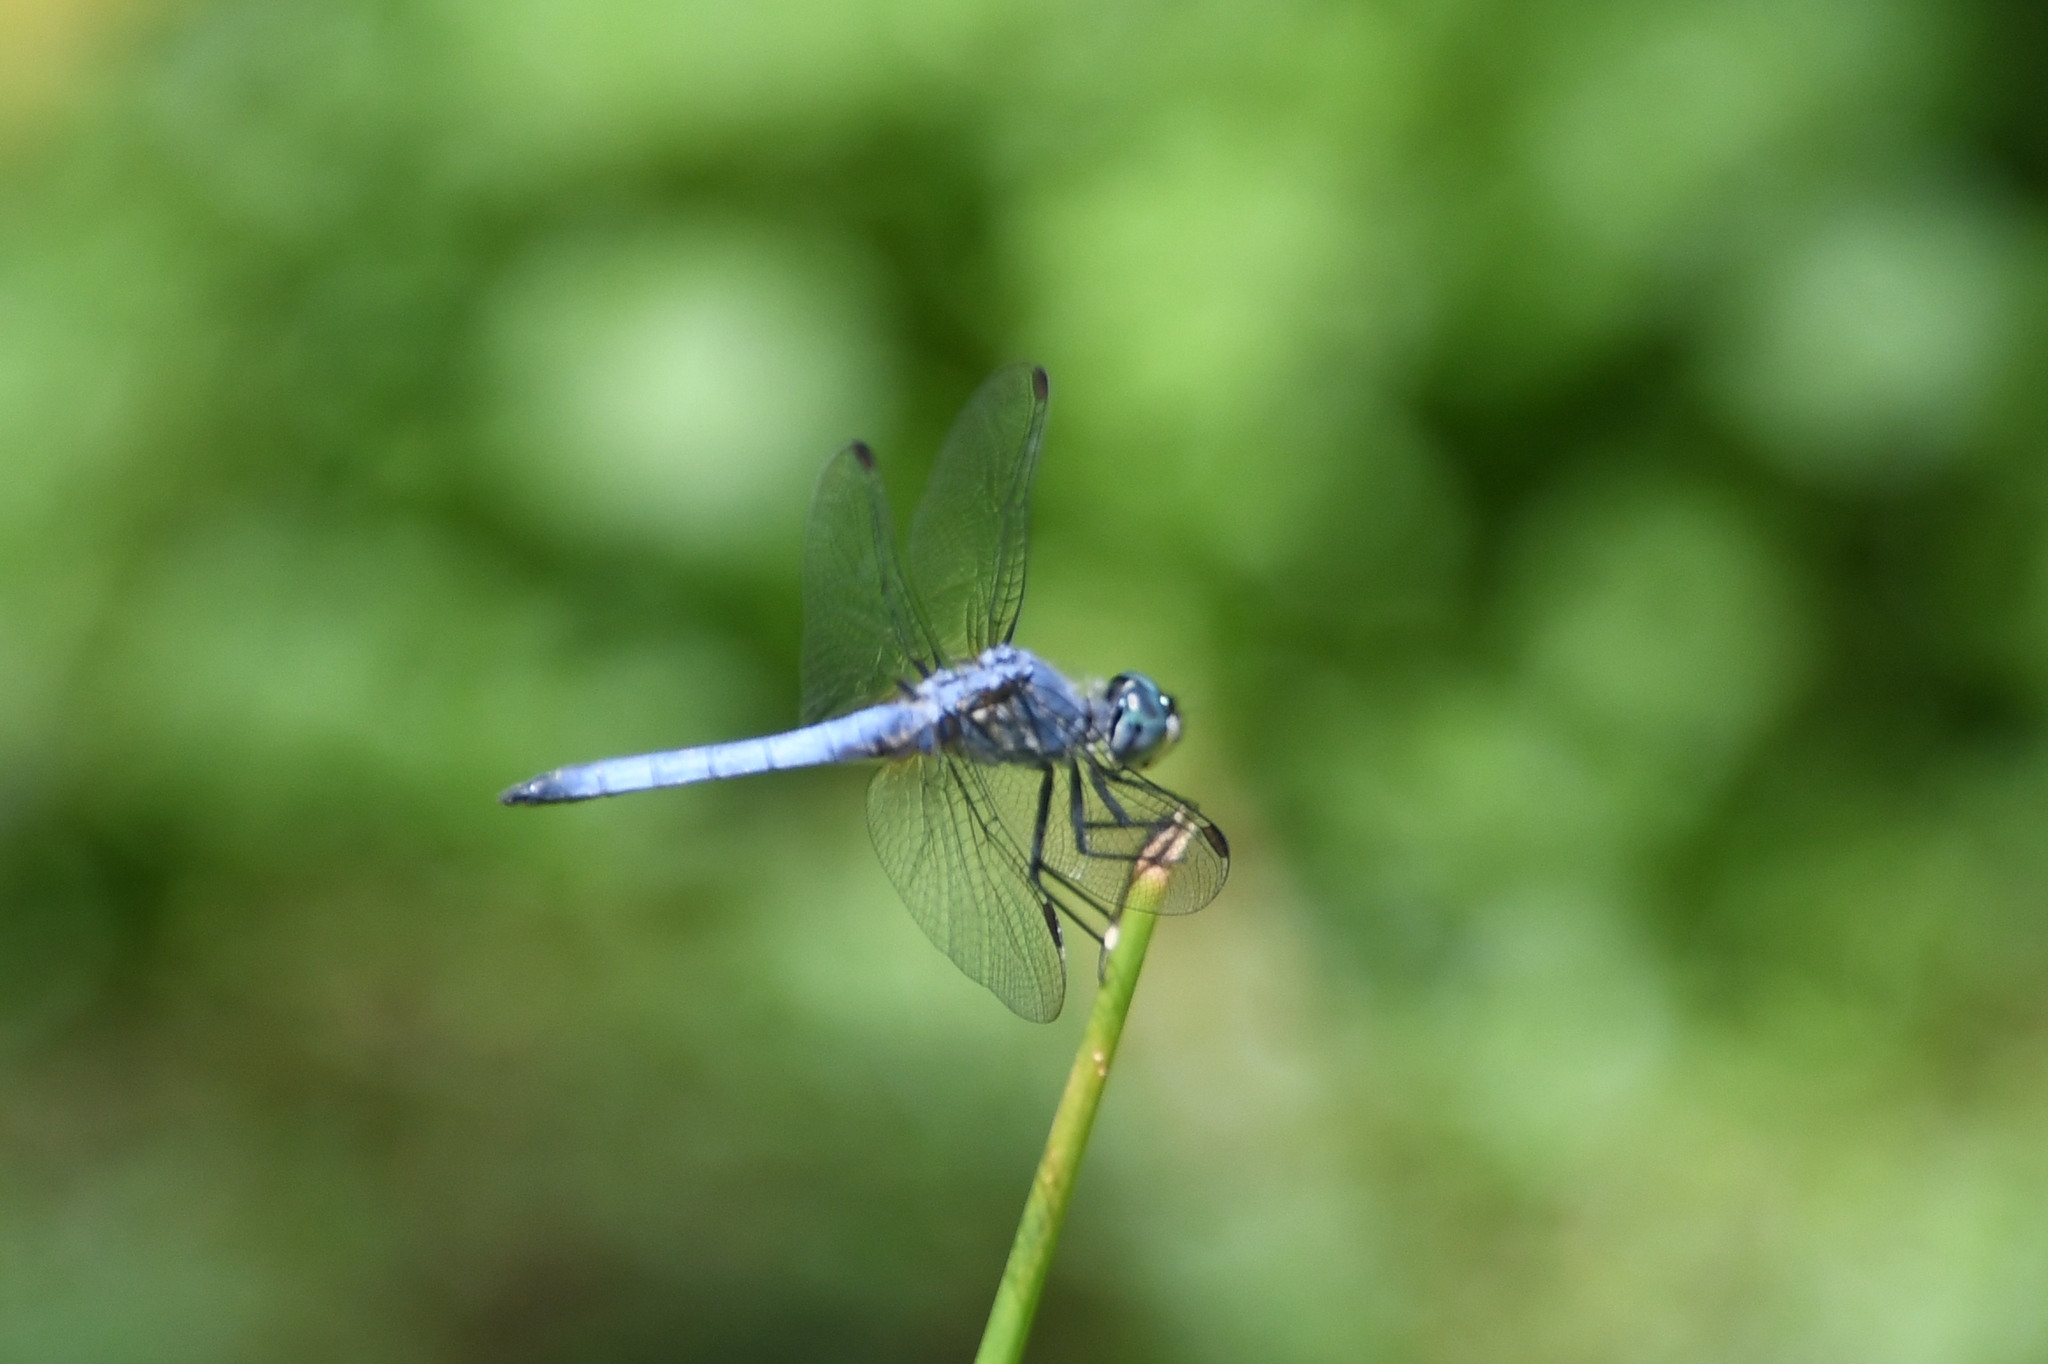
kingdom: Animalia
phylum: Arthropoda
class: Insecta
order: Odonata
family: Libellulidae
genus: Pachydiplax
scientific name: Pachydiplax longipennis
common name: Blue dasher
